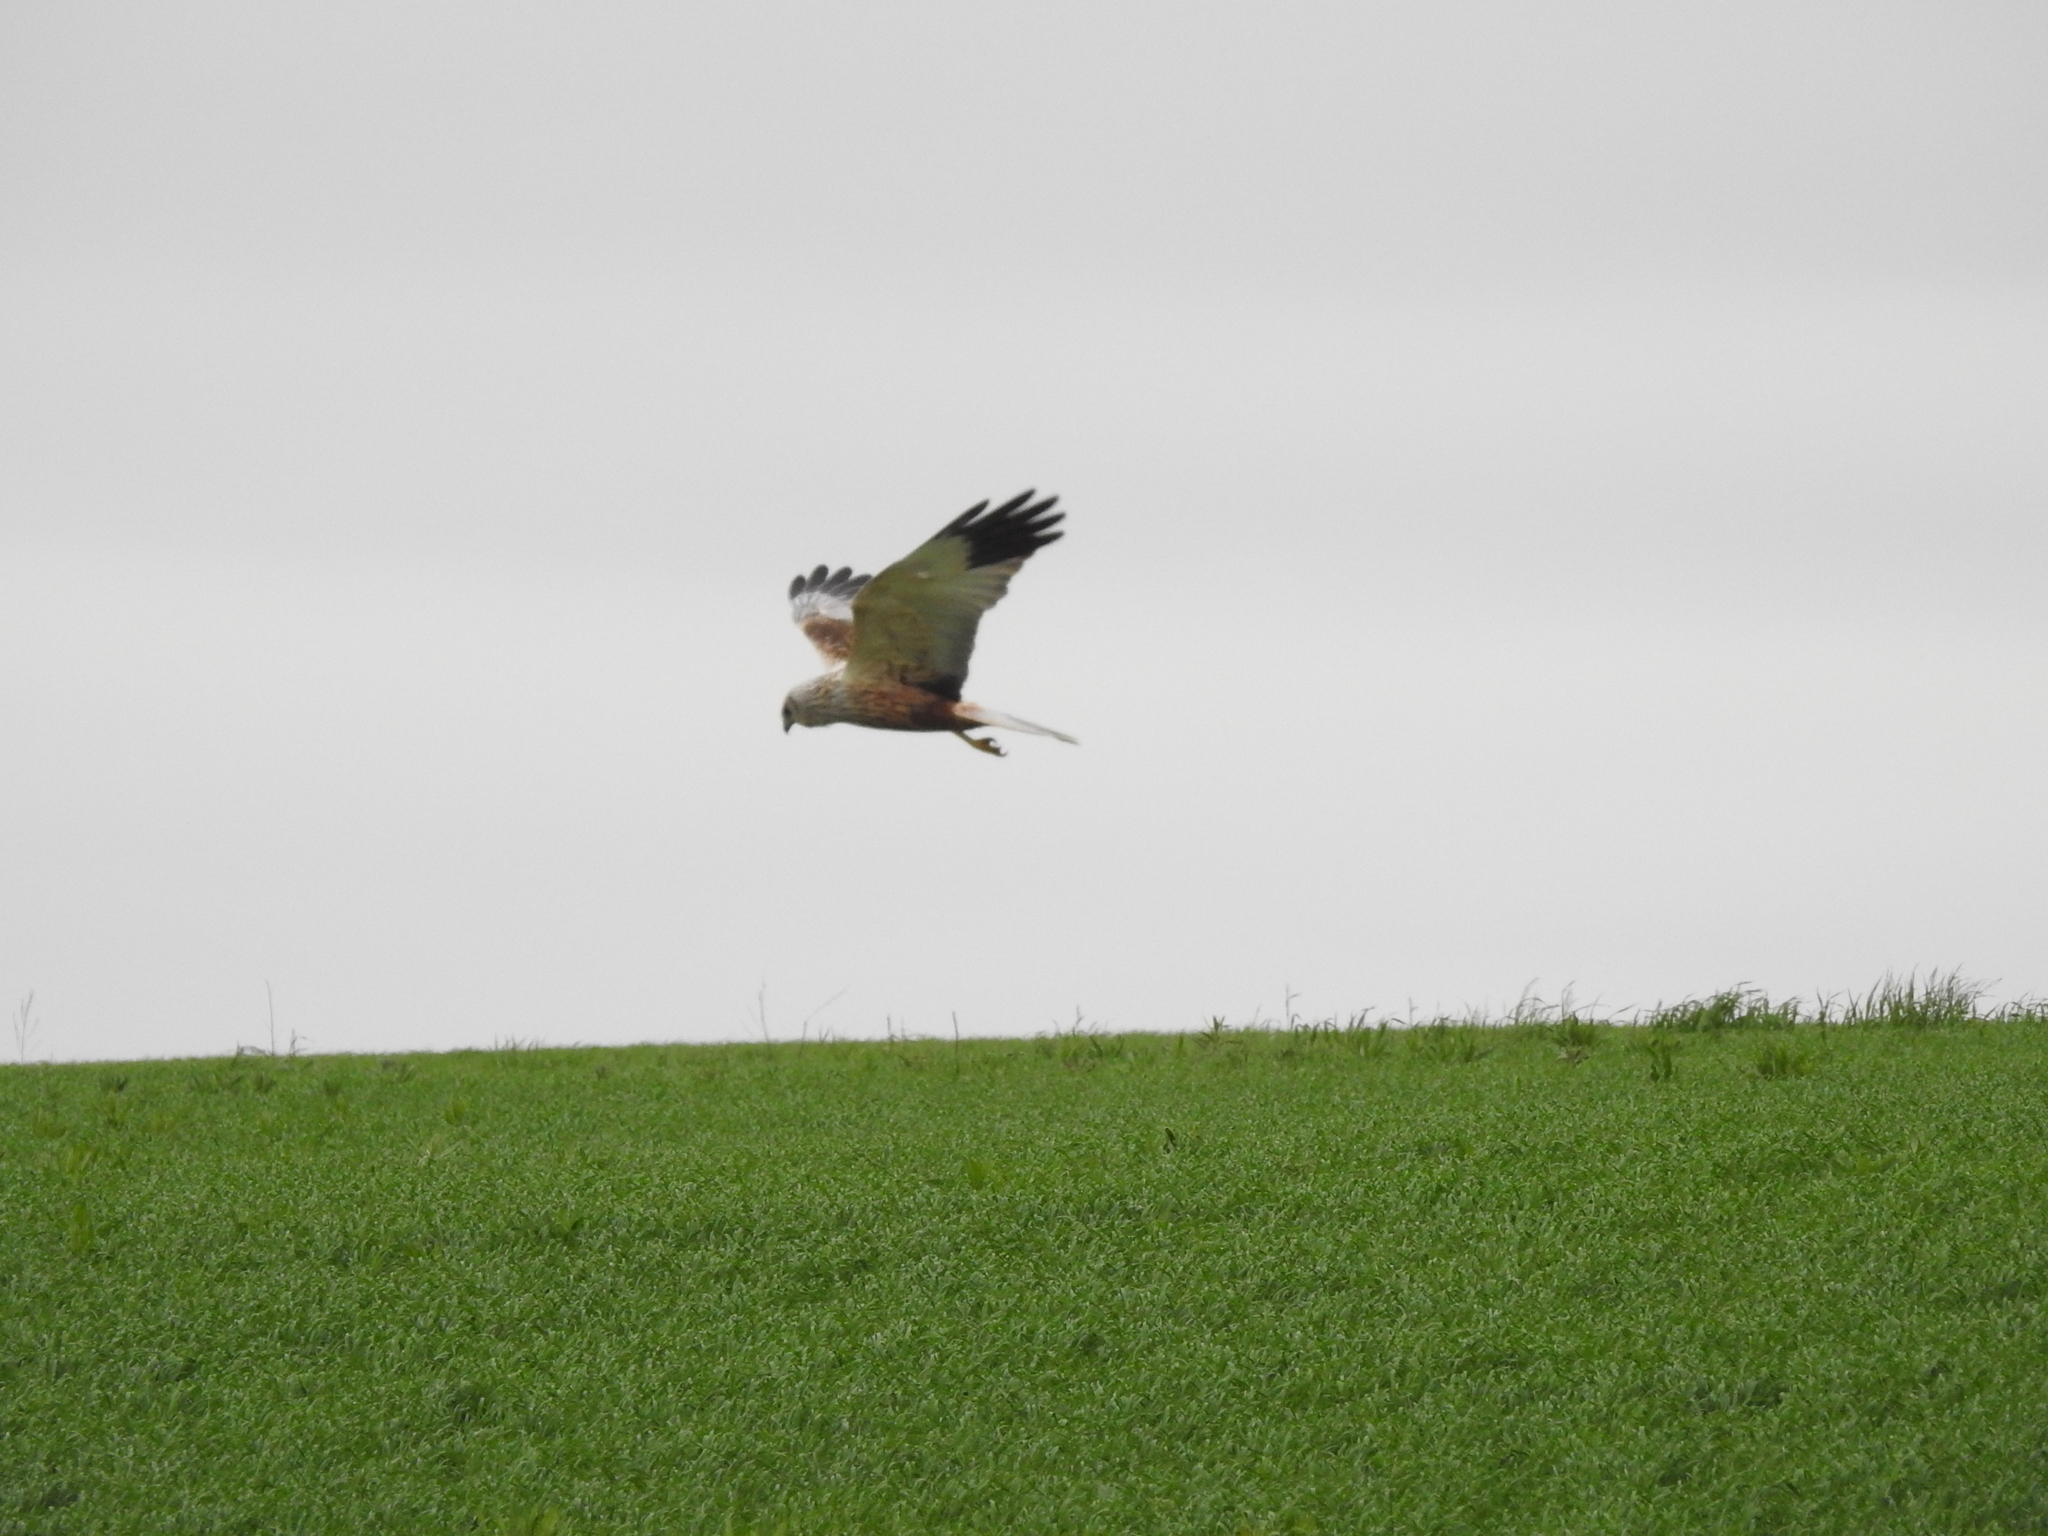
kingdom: Animalia
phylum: Chordata
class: Aves
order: Accipitriformes
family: Accipitridae
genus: Circus
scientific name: Circus aeruginosus
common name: Western marsh harrier
